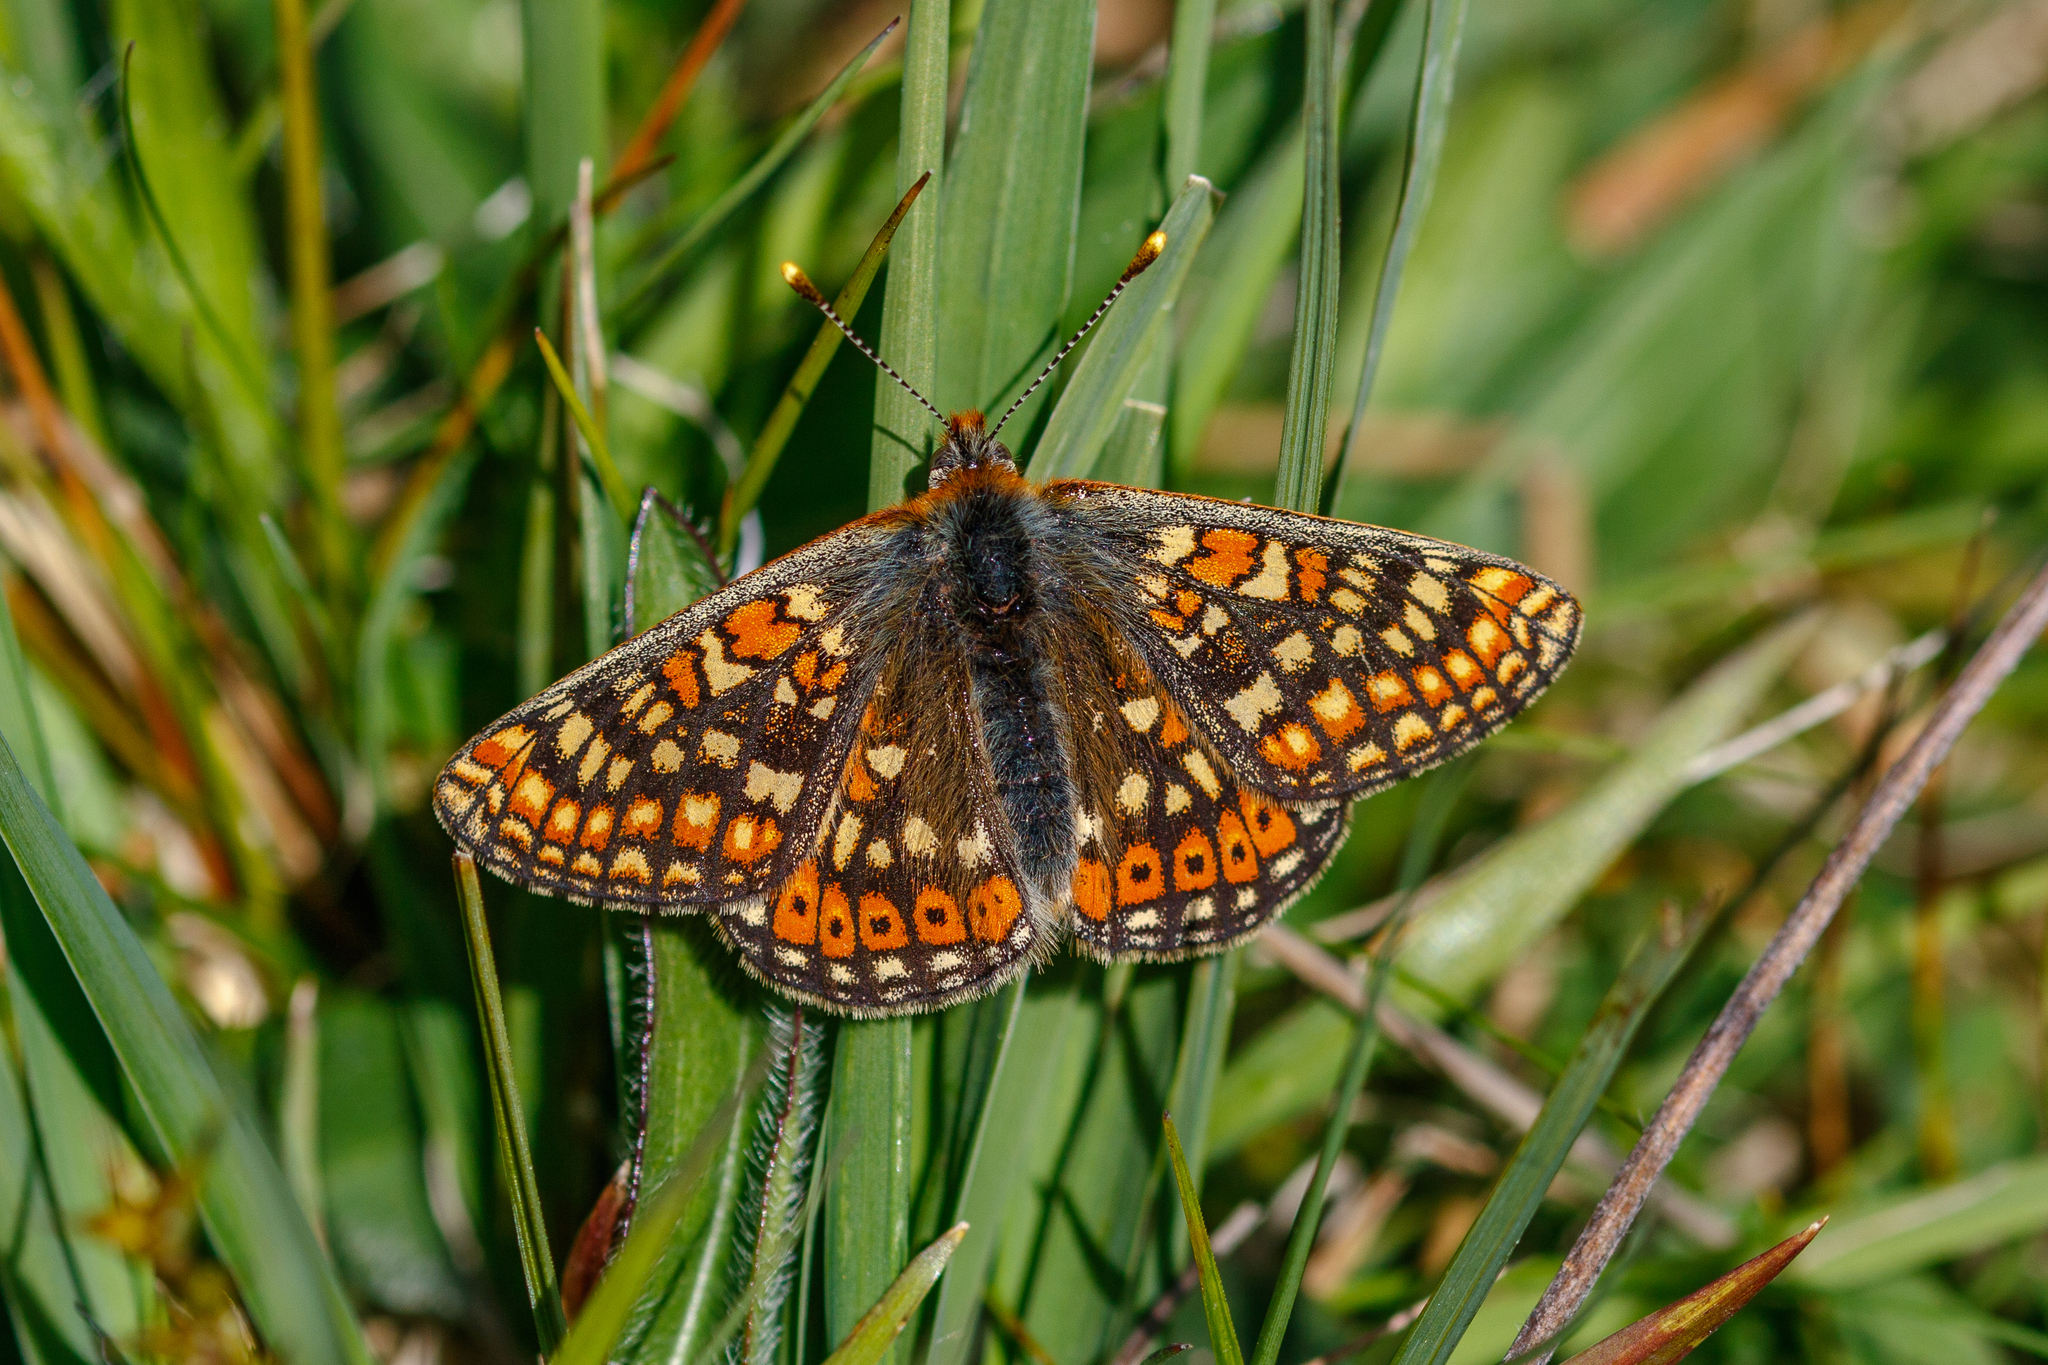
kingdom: Animalia
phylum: Arthropoda
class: Insecta
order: Lepidoptera
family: Nymphalidae
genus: Euphydryas
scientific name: Euphydryas aurinia
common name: Marsh fritillary
